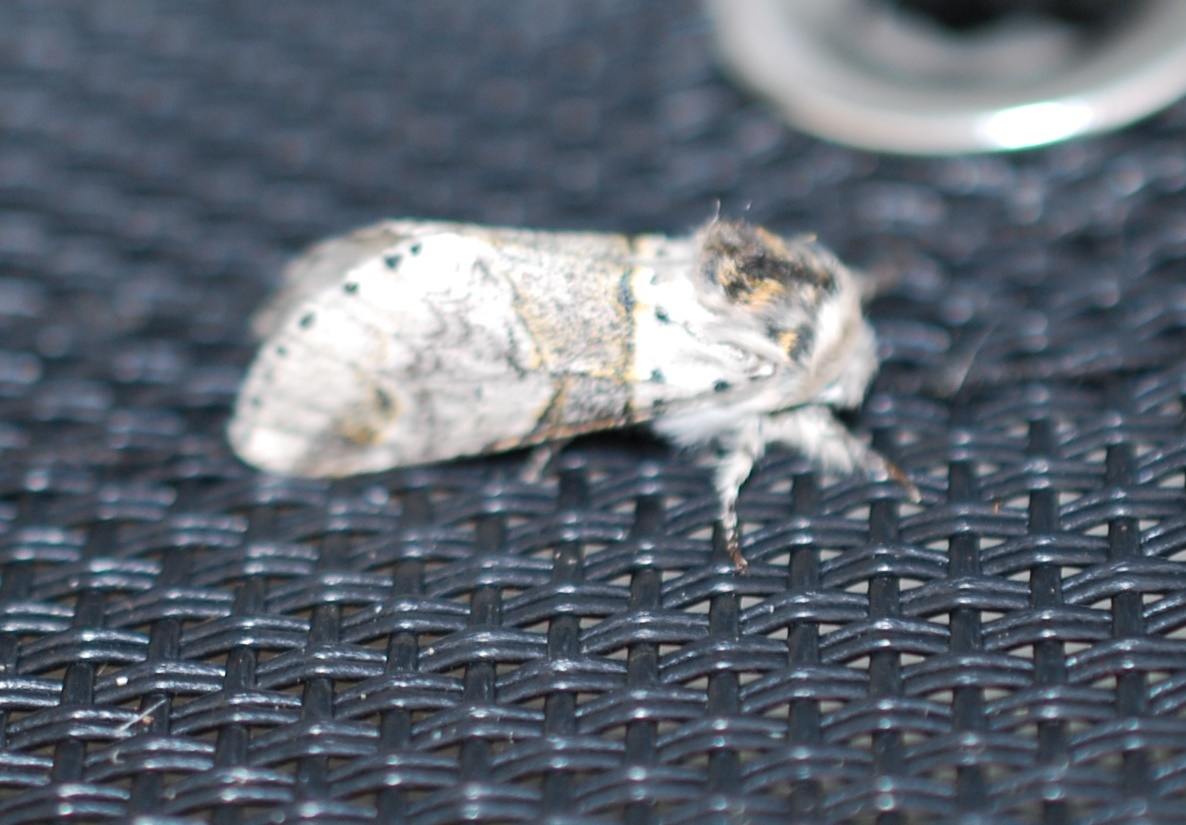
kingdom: Animalia
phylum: Arthropoda
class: Insecta
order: Lepidoptera
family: Notodontidae
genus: Furcula
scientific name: Furcula bifida
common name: Poplar kitten
